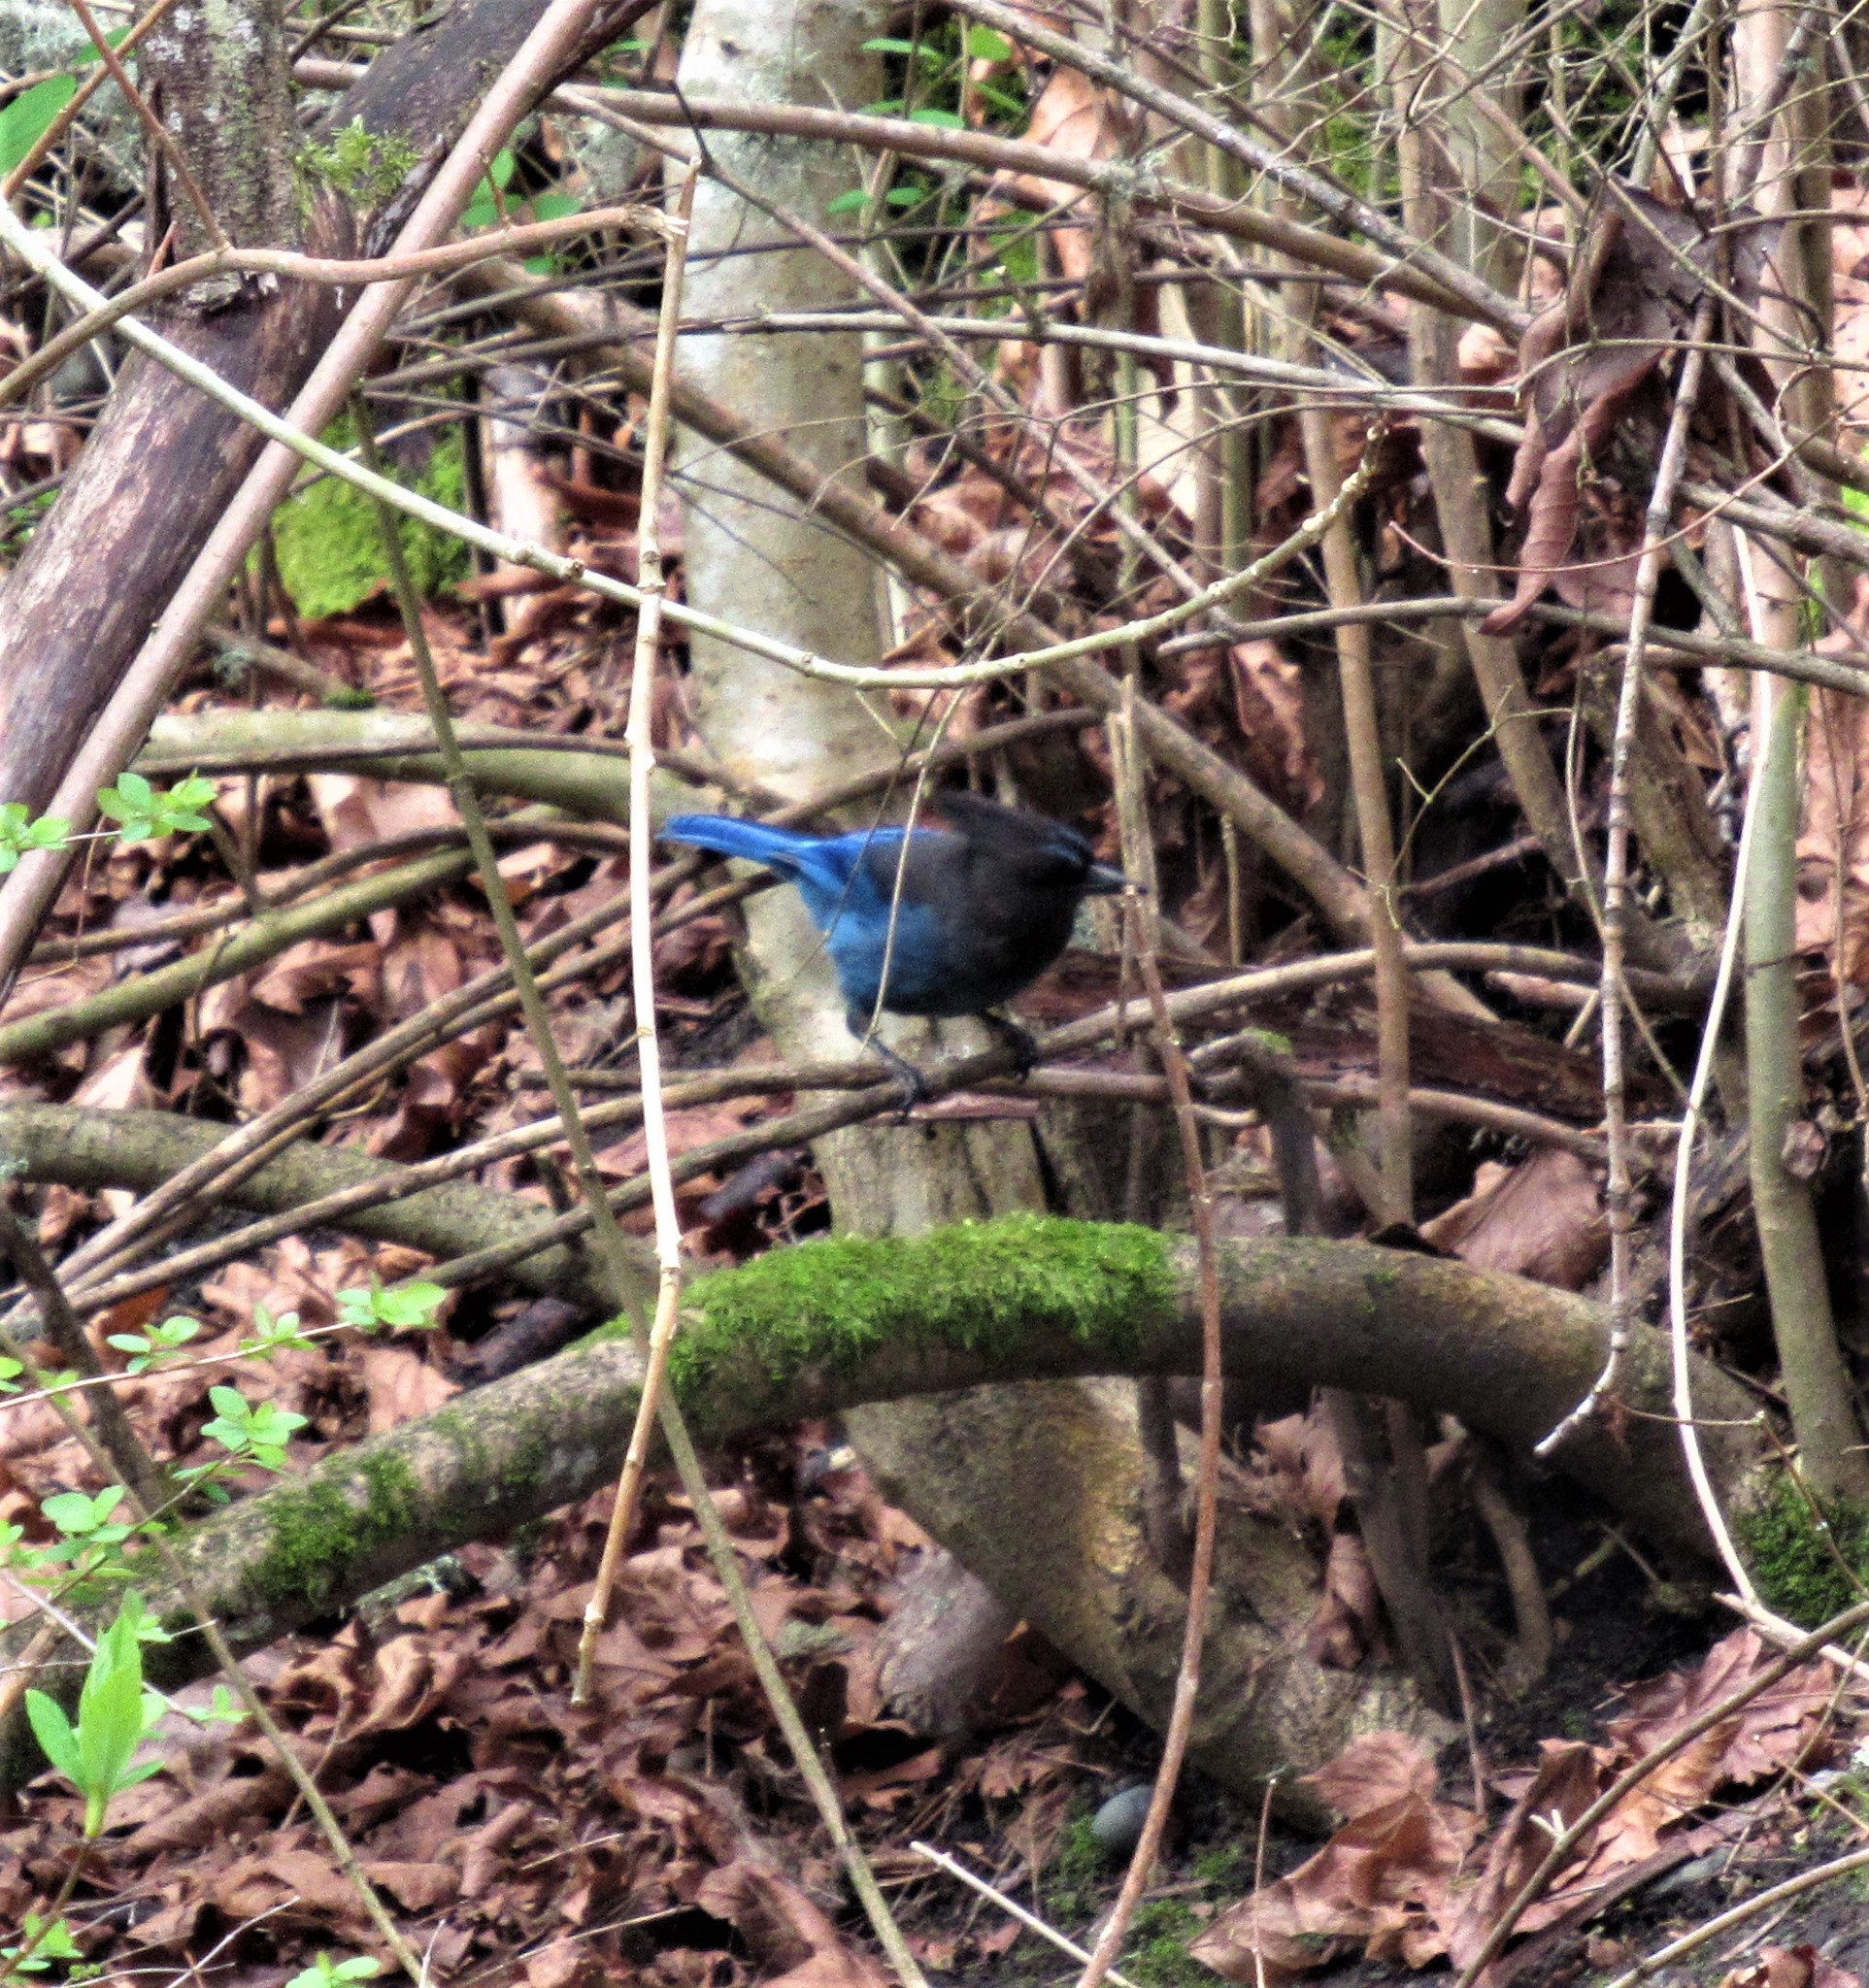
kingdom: Animalia
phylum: Chordata
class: Aves
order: Passeriformes
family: Corvidae
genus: Cyanocitta
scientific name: Cyanocitta stelleri
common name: Steller's jay
